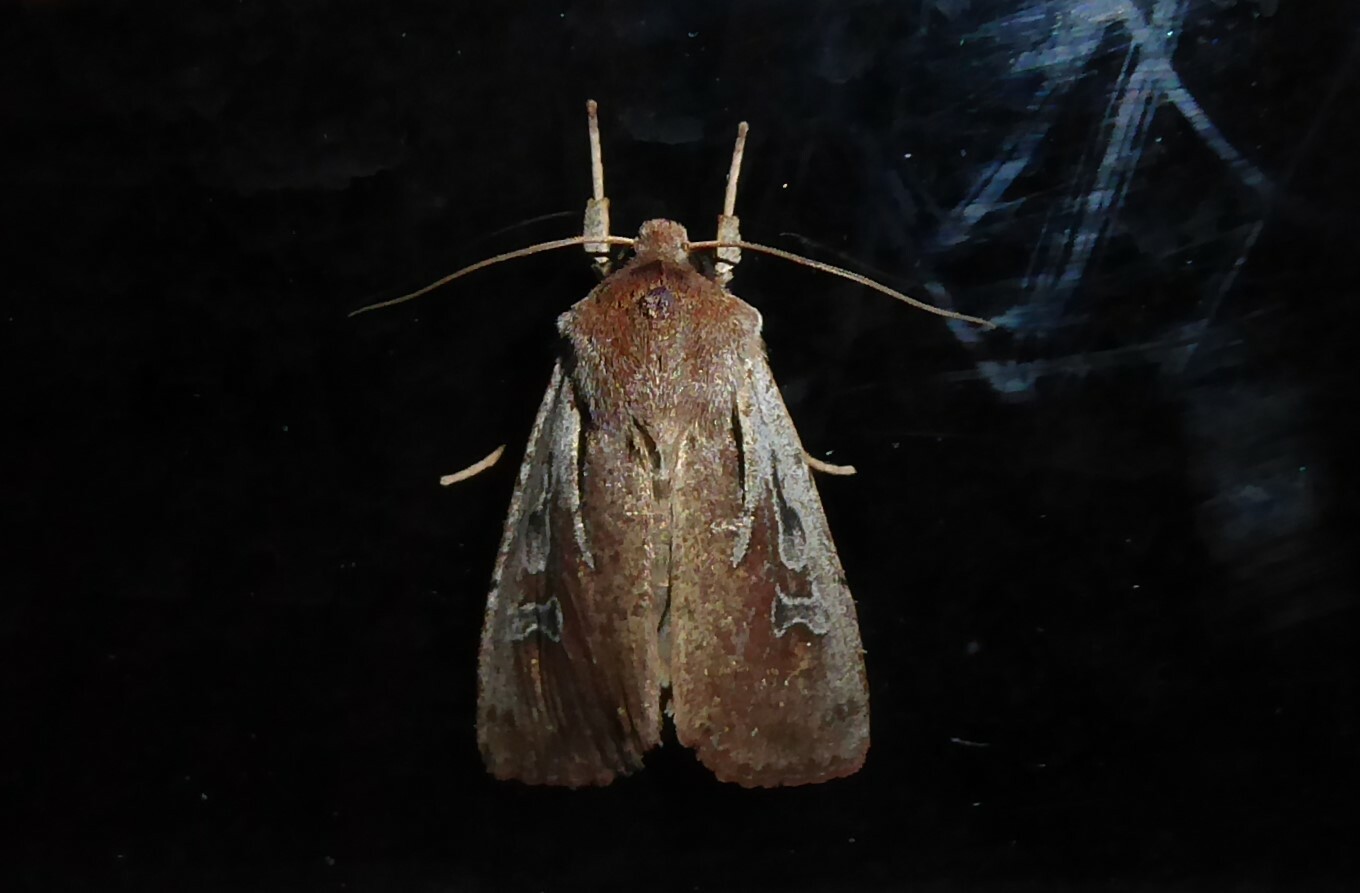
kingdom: Animalia
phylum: Arthropoda
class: Insecta
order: Lepidoptera
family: Noctuidae
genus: Ichneutica
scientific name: Ichneutica atristriga
